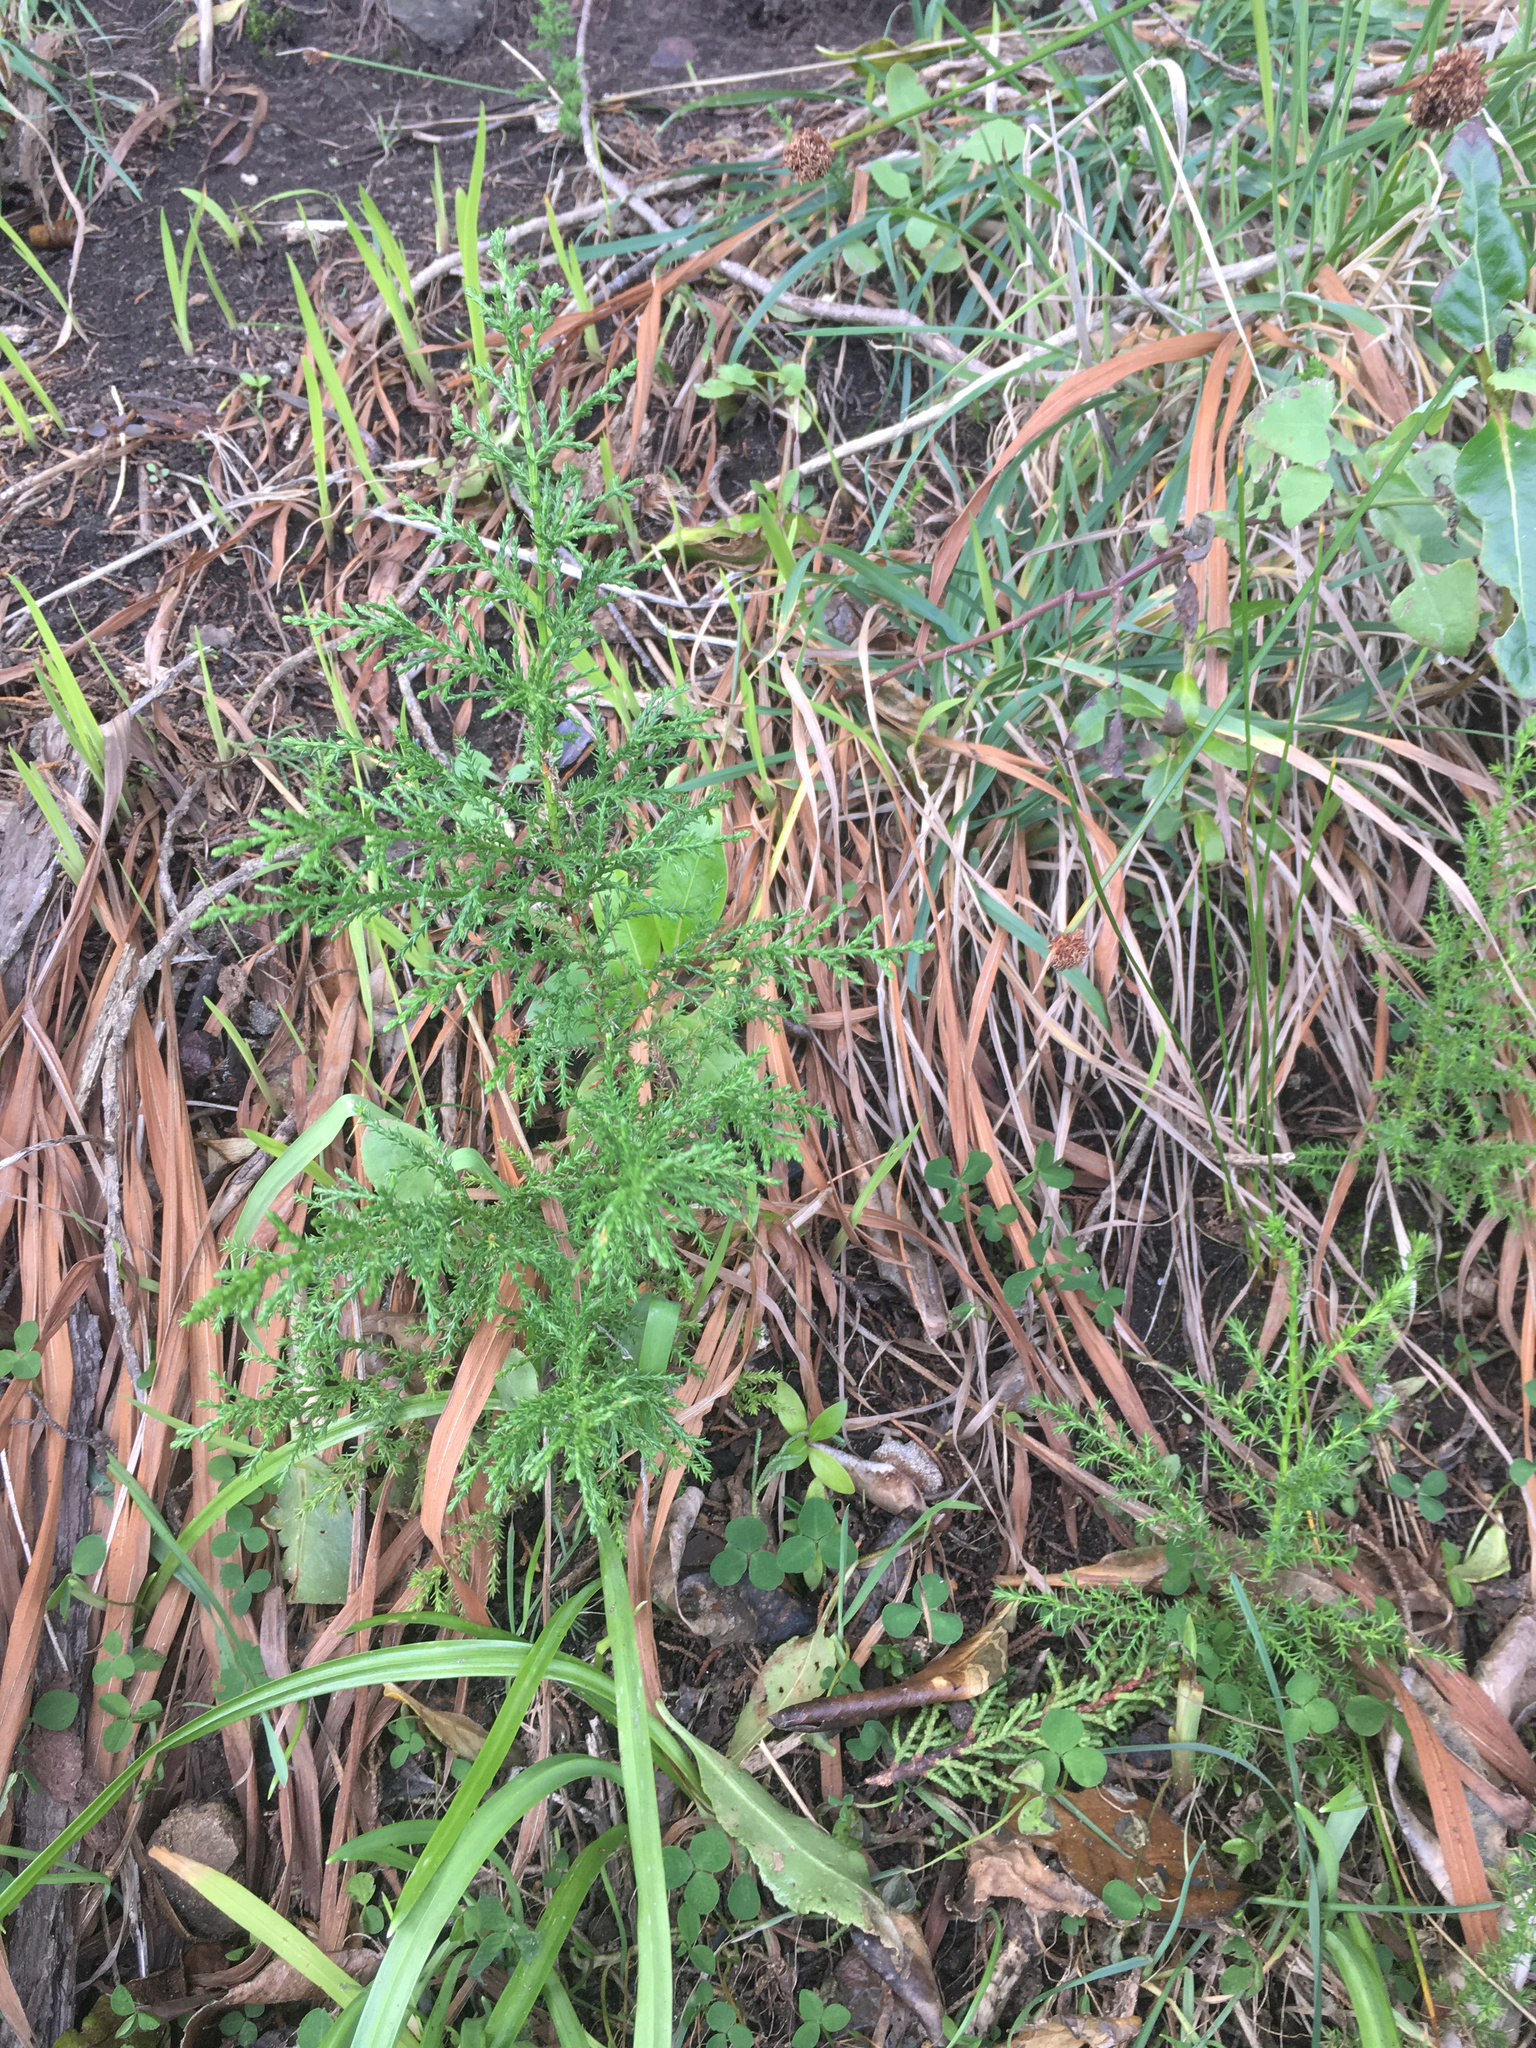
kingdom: Plantae
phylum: Tracheophyta
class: Pinopsida
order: Pinales
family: Cupressaceae
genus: Cupressus
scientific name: Cupressus macrocarpa
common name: Monterey cypress
